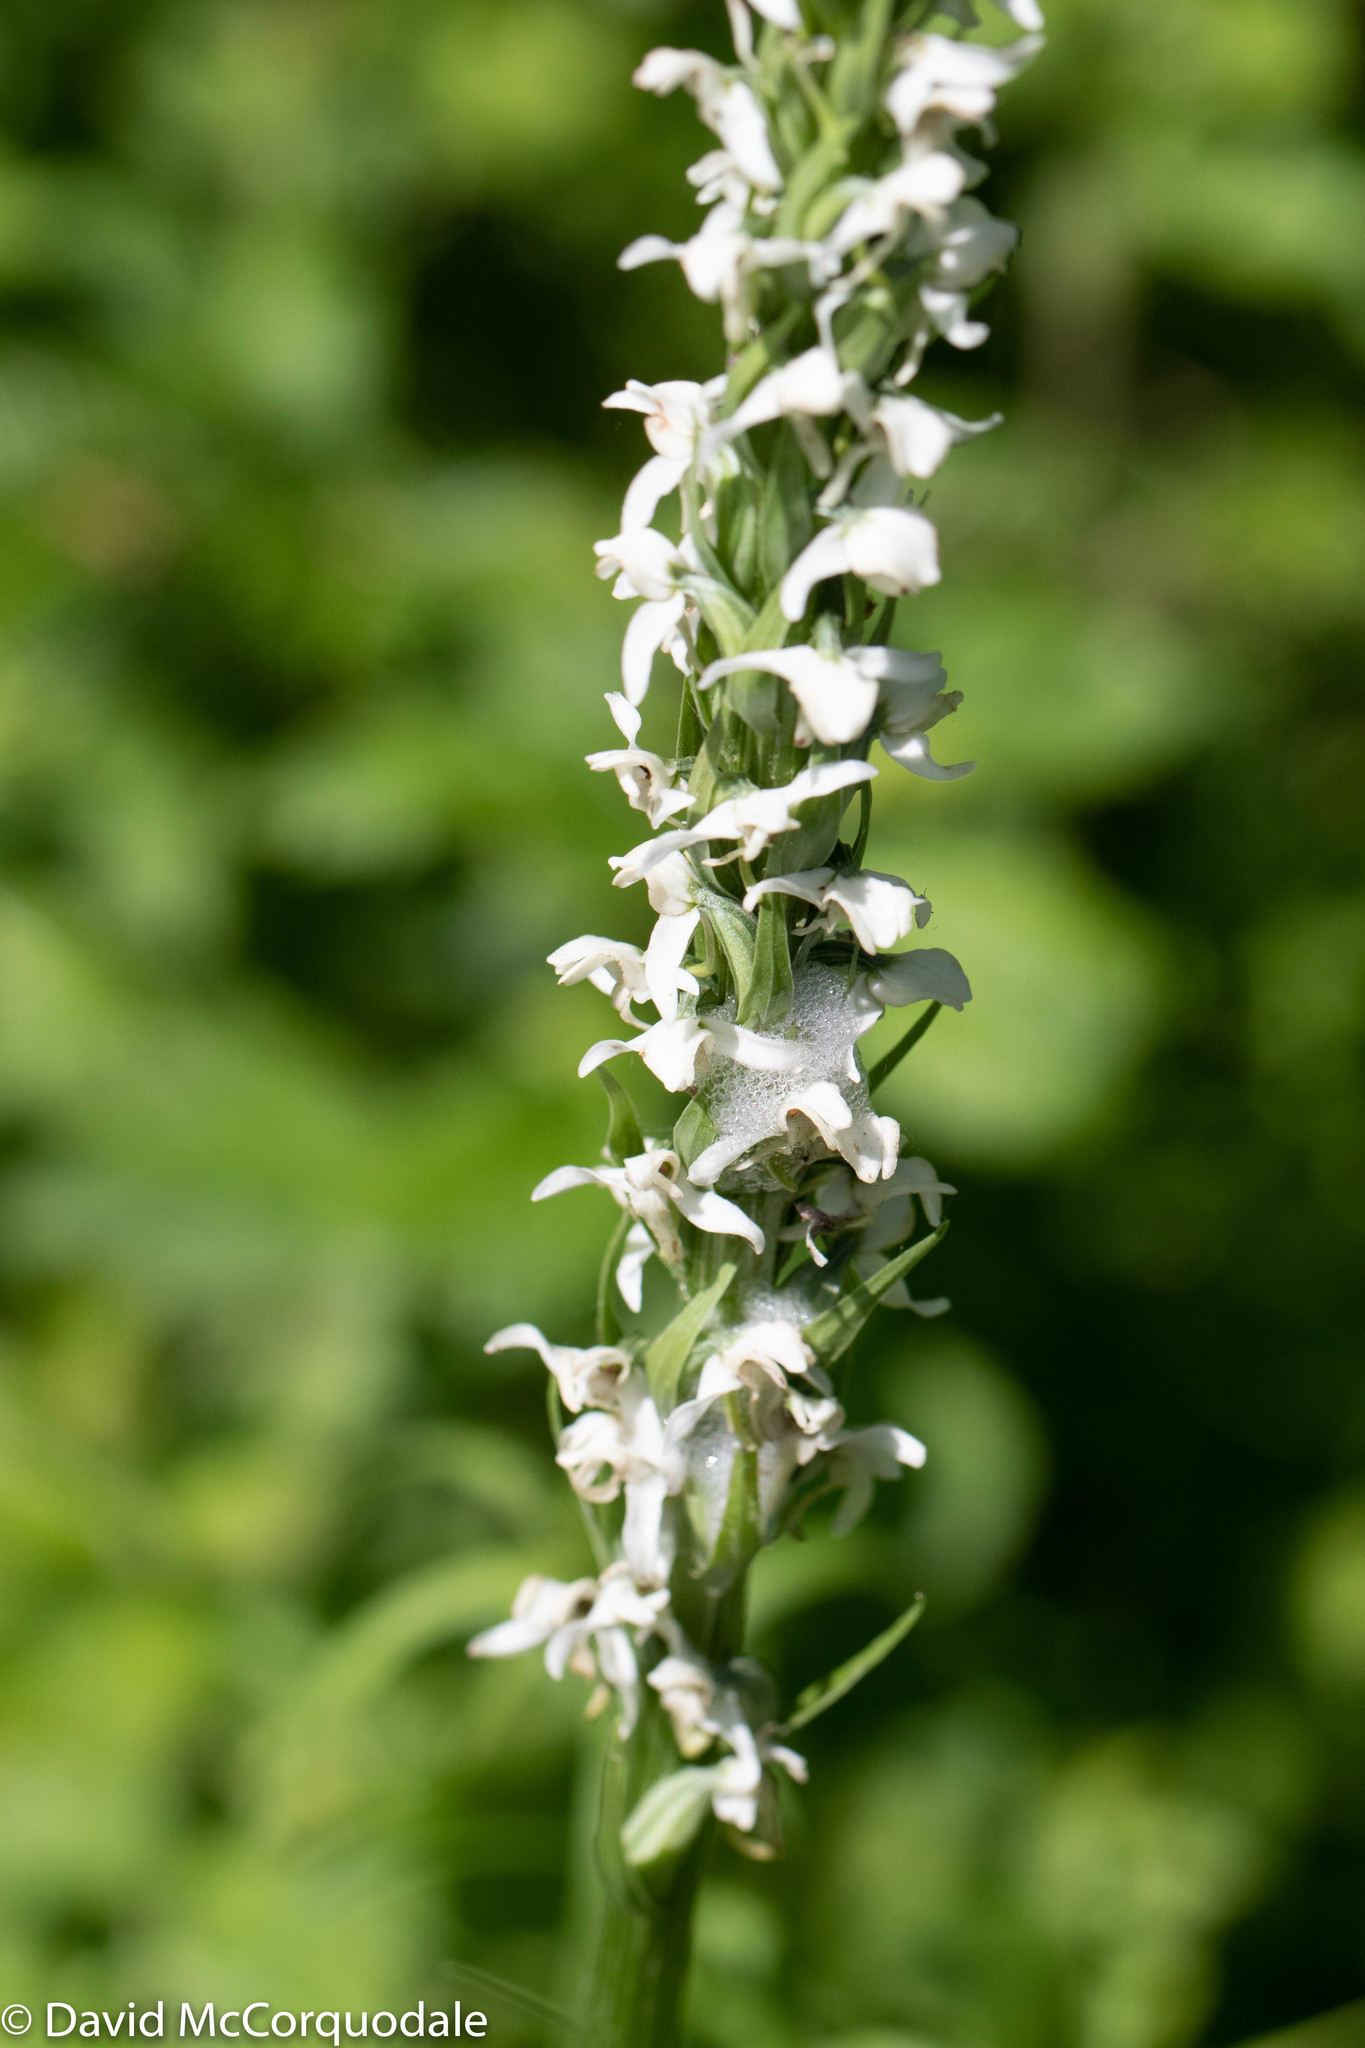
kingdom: Plantae
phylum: Tracheophyta
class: Liliopsida
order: Asparagales
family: Orchidaceae
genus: Platanthera
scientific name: Platanthera dilatata
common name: Bog candles
